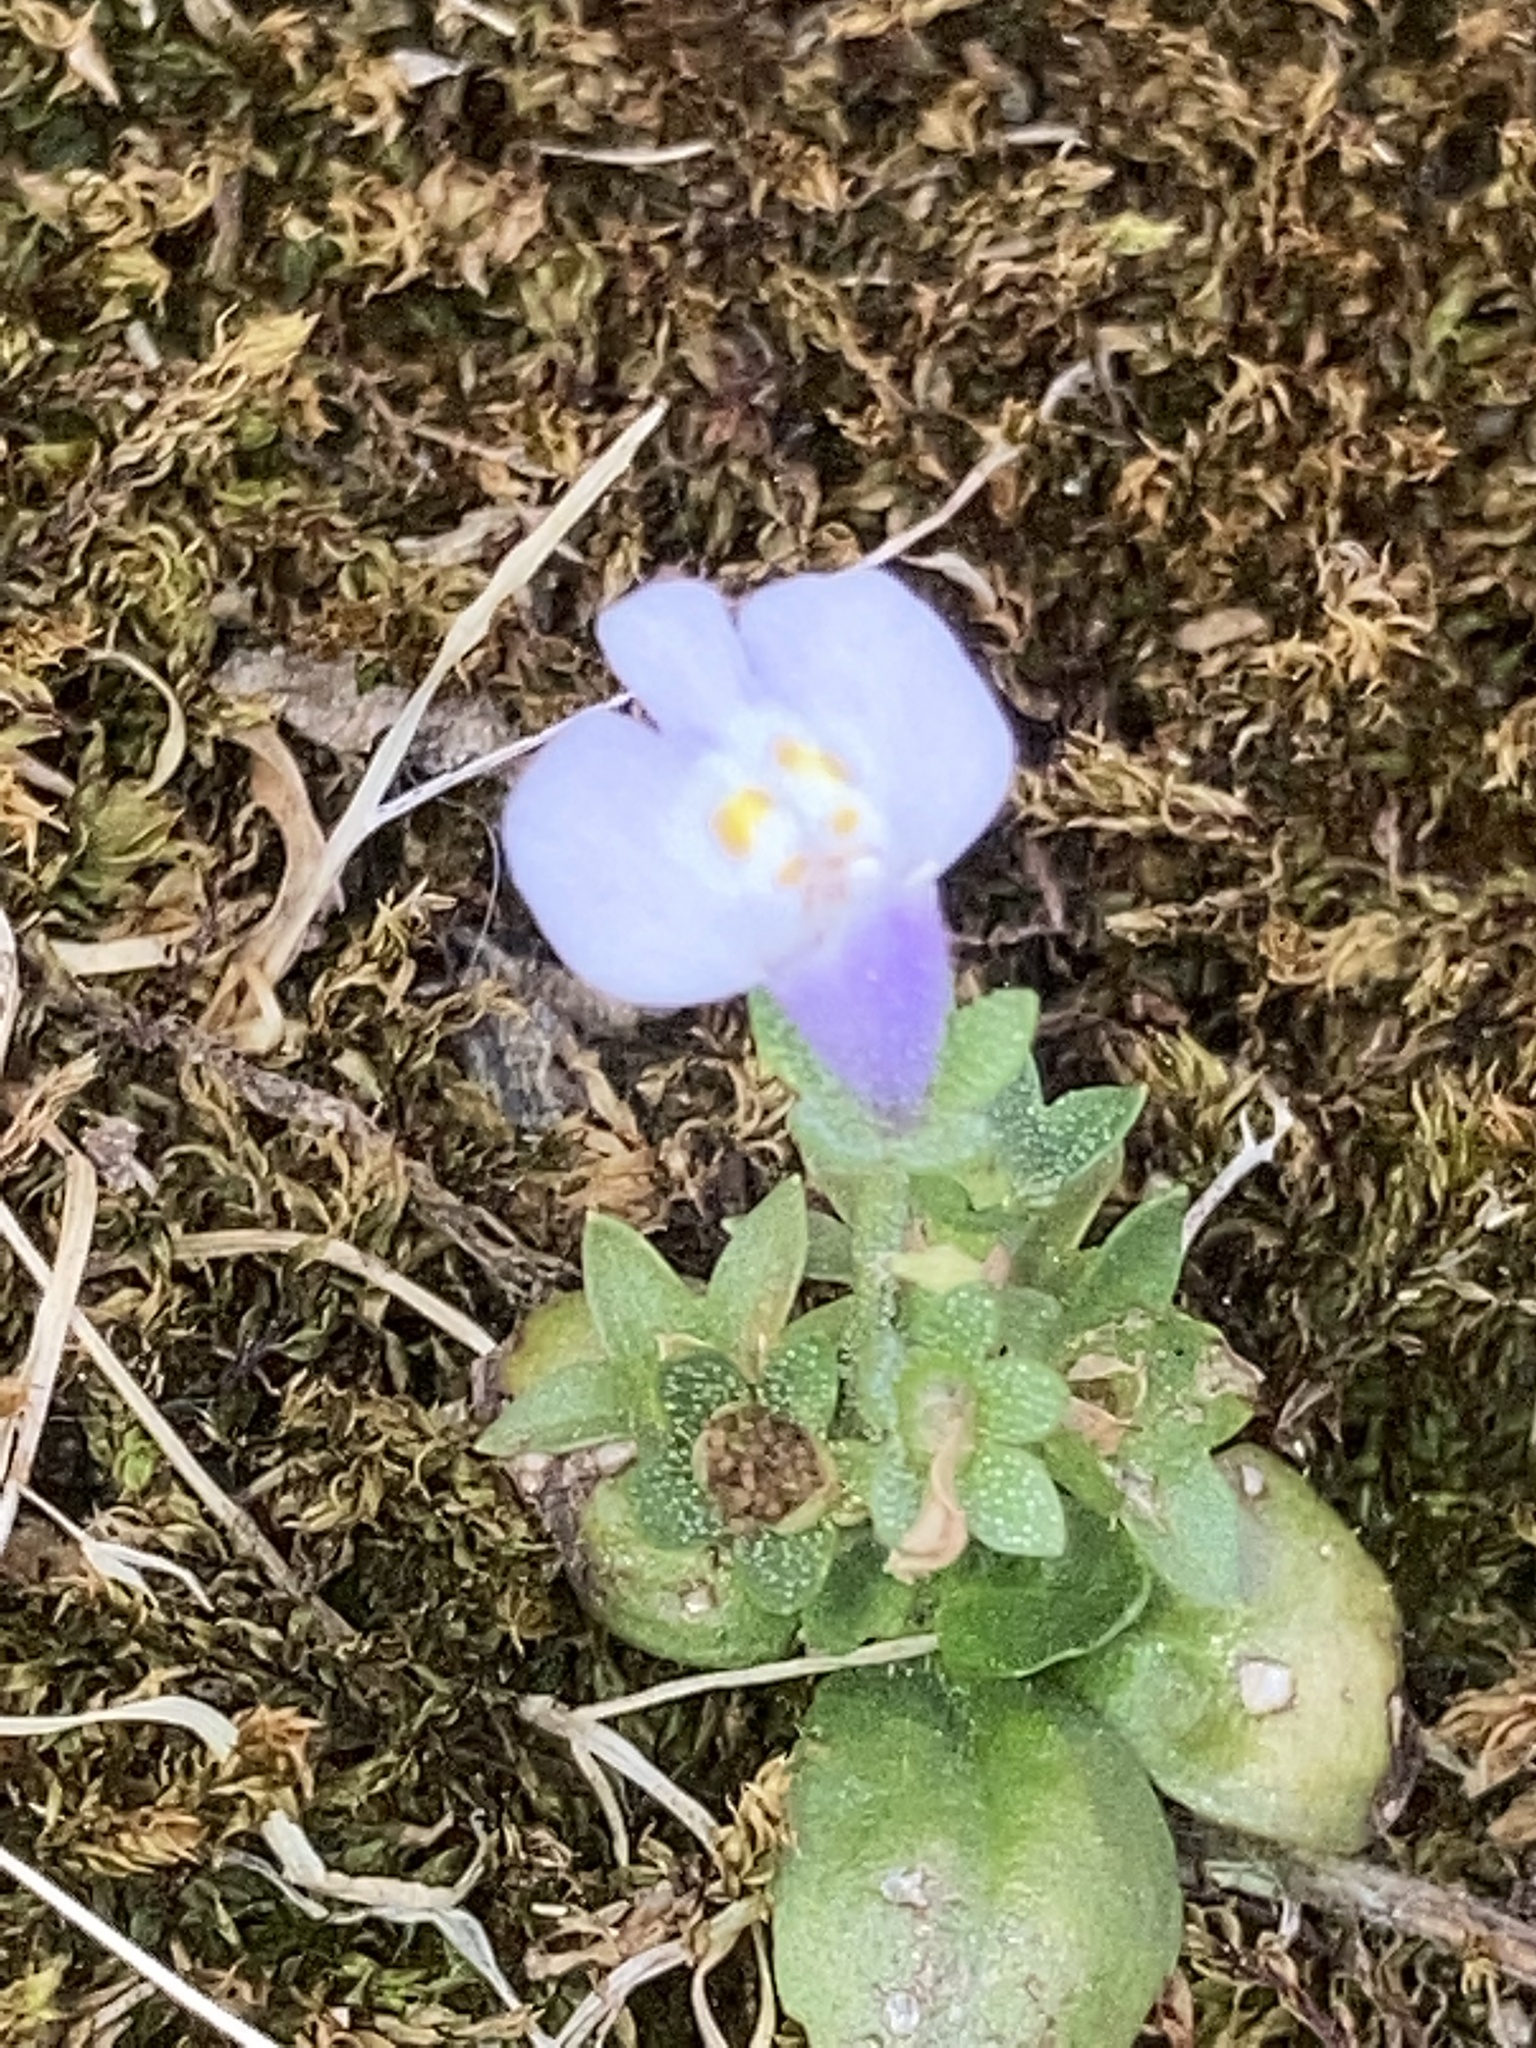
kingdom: Plantae
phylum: Tracheophyta
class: Magnoliopsida
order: Lamiales
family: Mazaceae
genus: Mazus
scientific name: Mazus pumilus
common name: Japanese mazus
